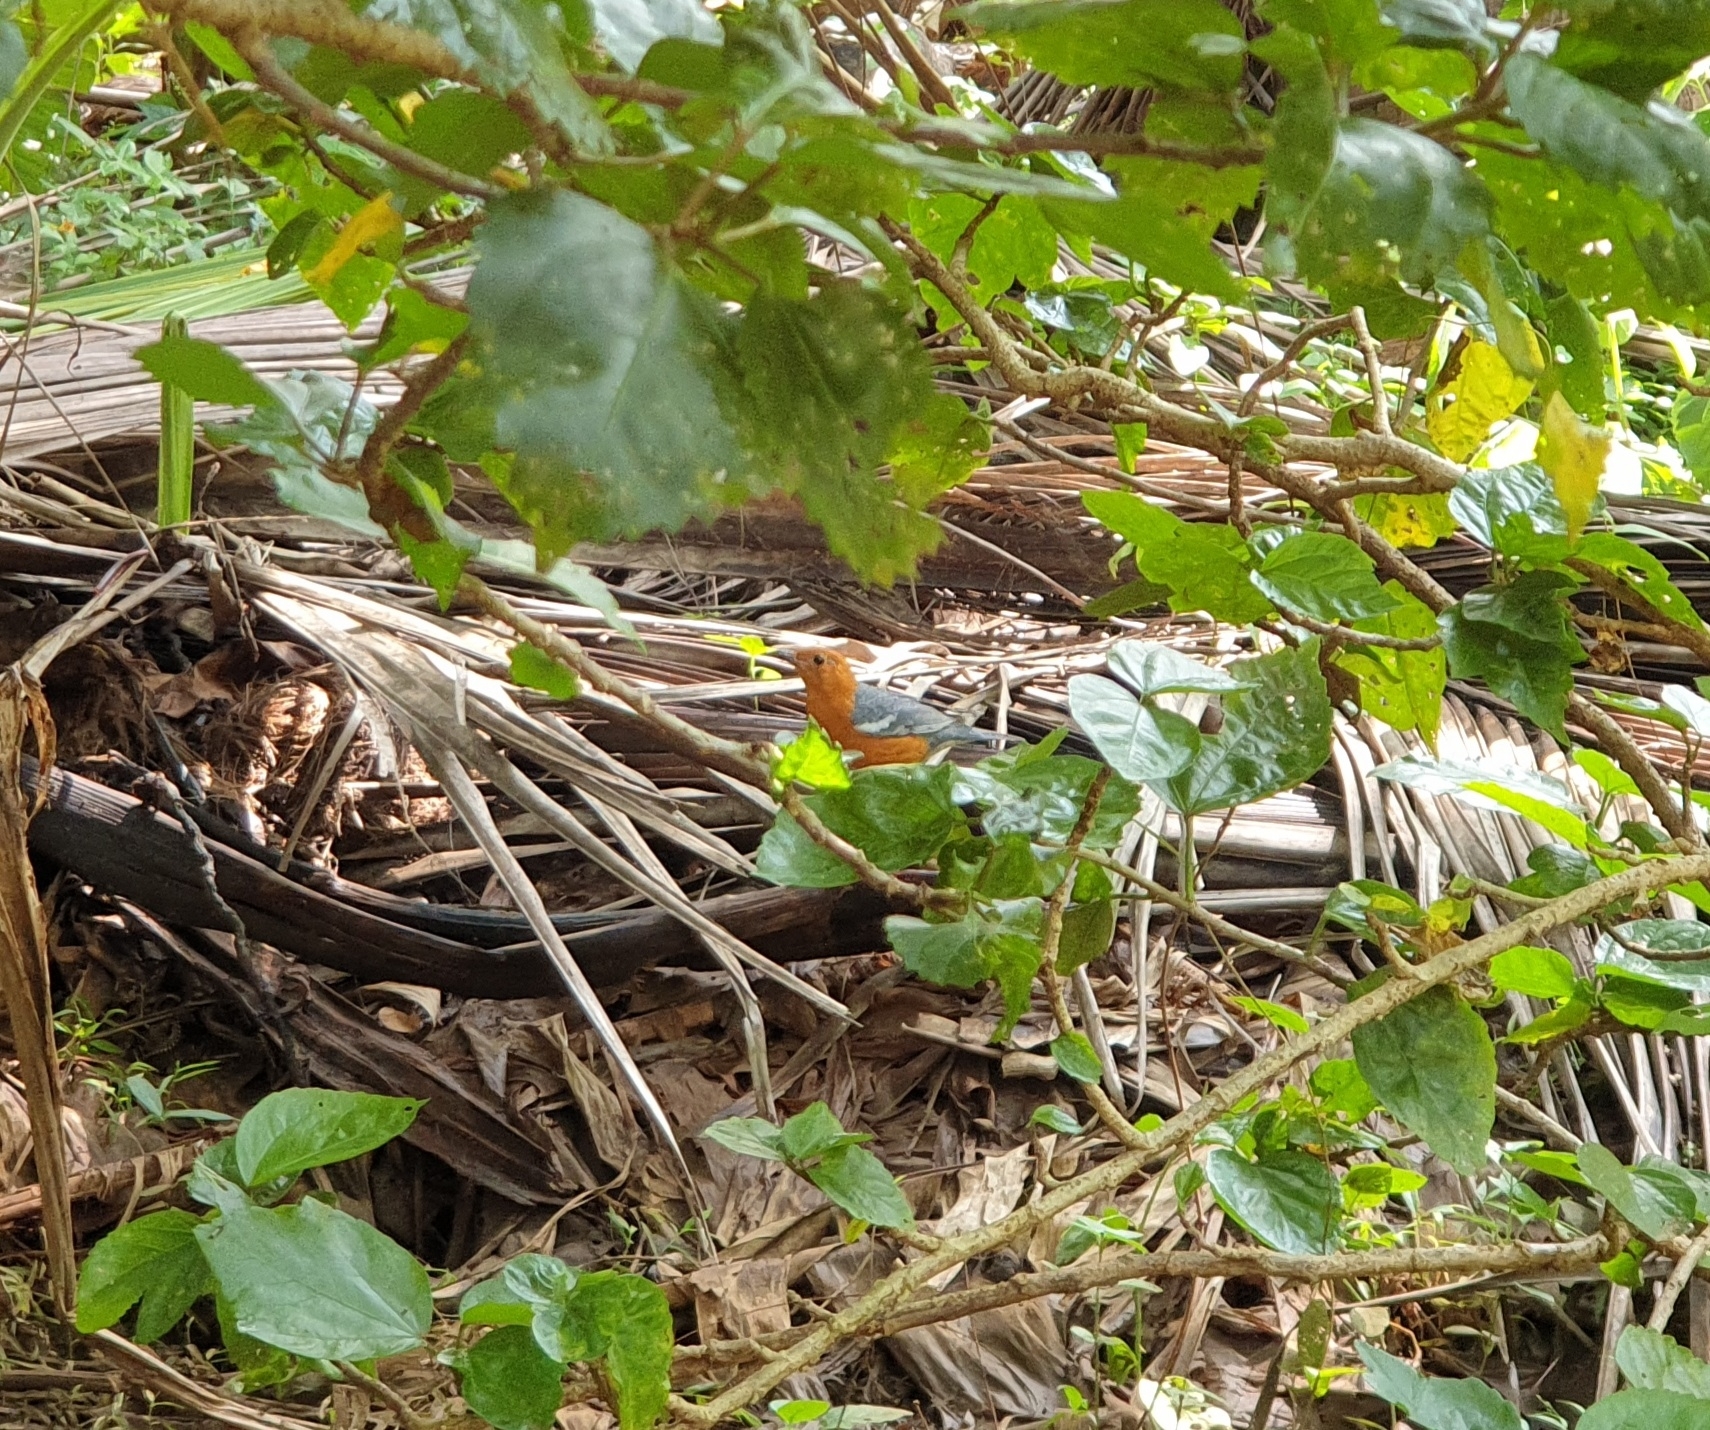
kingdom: Animalia
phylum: Chordata
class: Aves
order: Passeriformes
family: Turdidae
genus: Geokichla
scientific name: Geokichla citrina
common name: Orange-headed thrush
